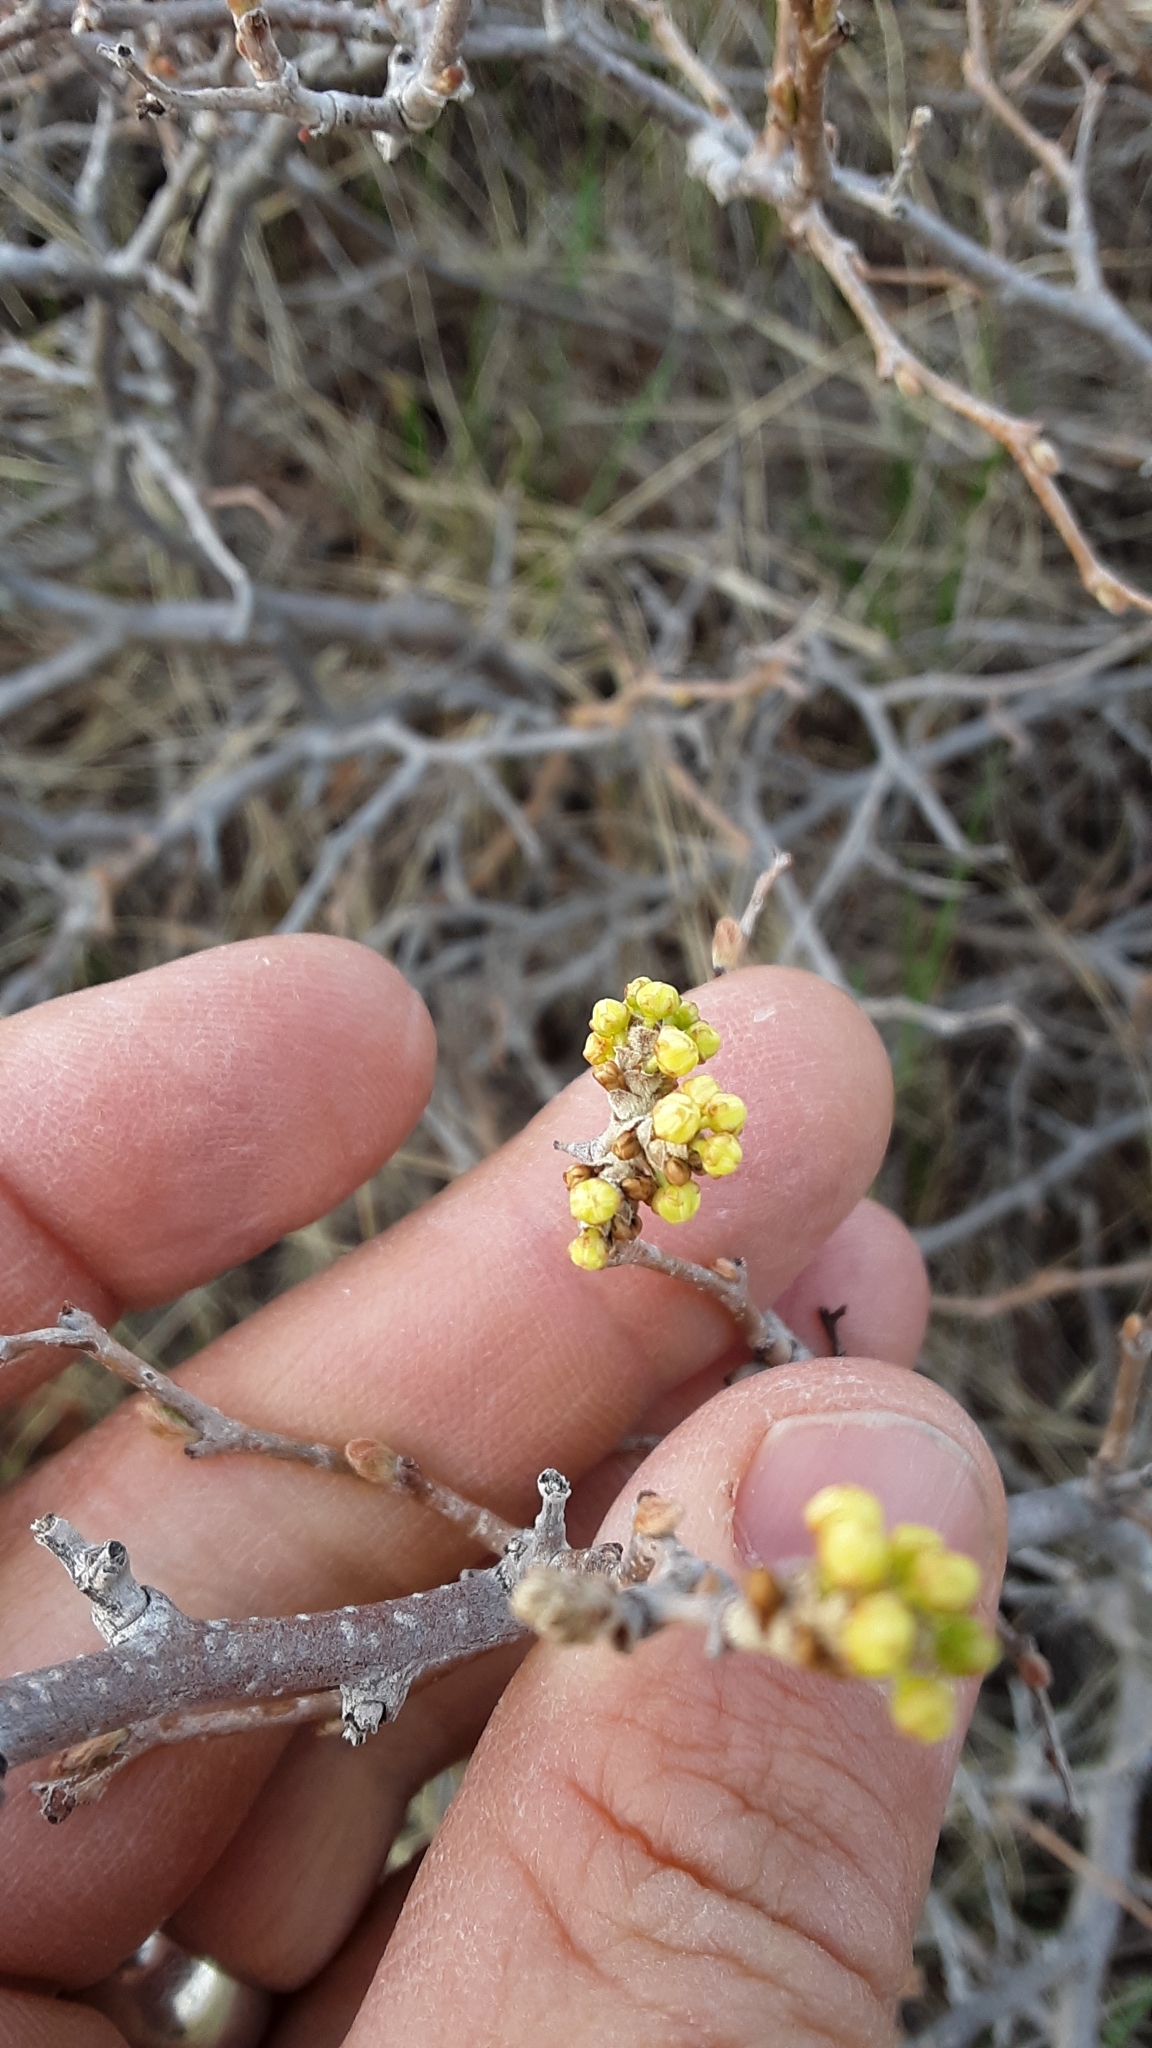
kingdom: Plantae
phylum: Tracheophyta
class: Magnoliopsida
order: Sapindales
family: Anacardiaceae
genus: Rhus
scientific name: Rhus aromatica
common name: Aromatic sumac
